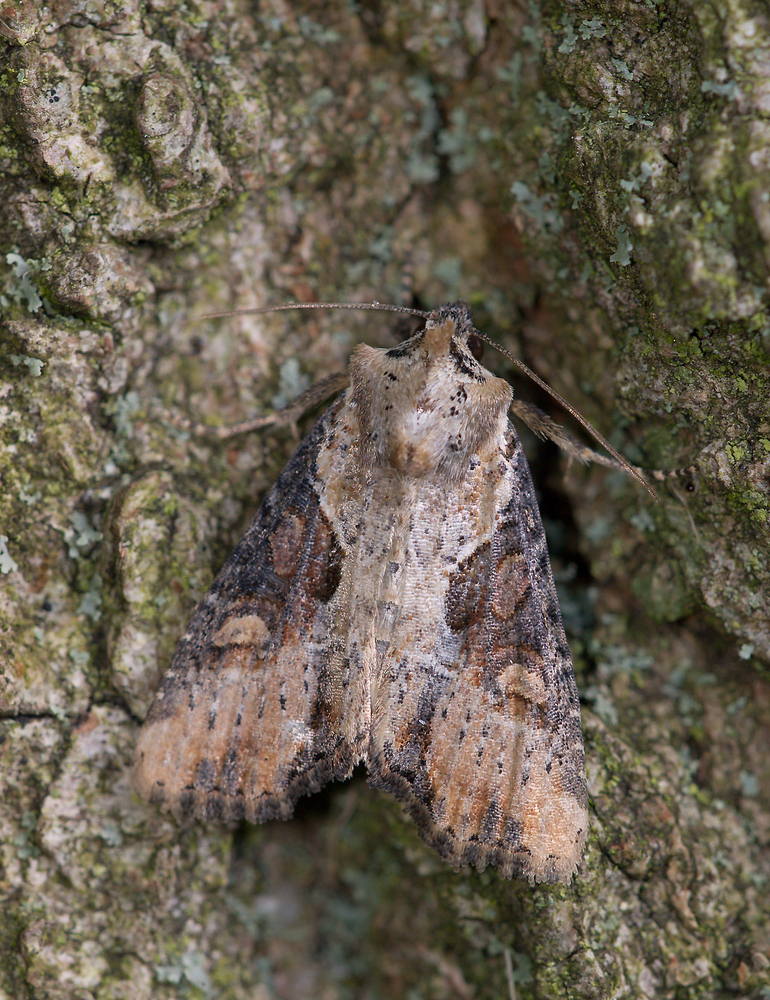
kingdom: Animalia
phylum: Arthropoda
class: Insecta
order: Lepidoptera
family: Noctuidae
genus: Lateroligia
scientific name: Lateroligia ophiogramma
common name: Double lobed
